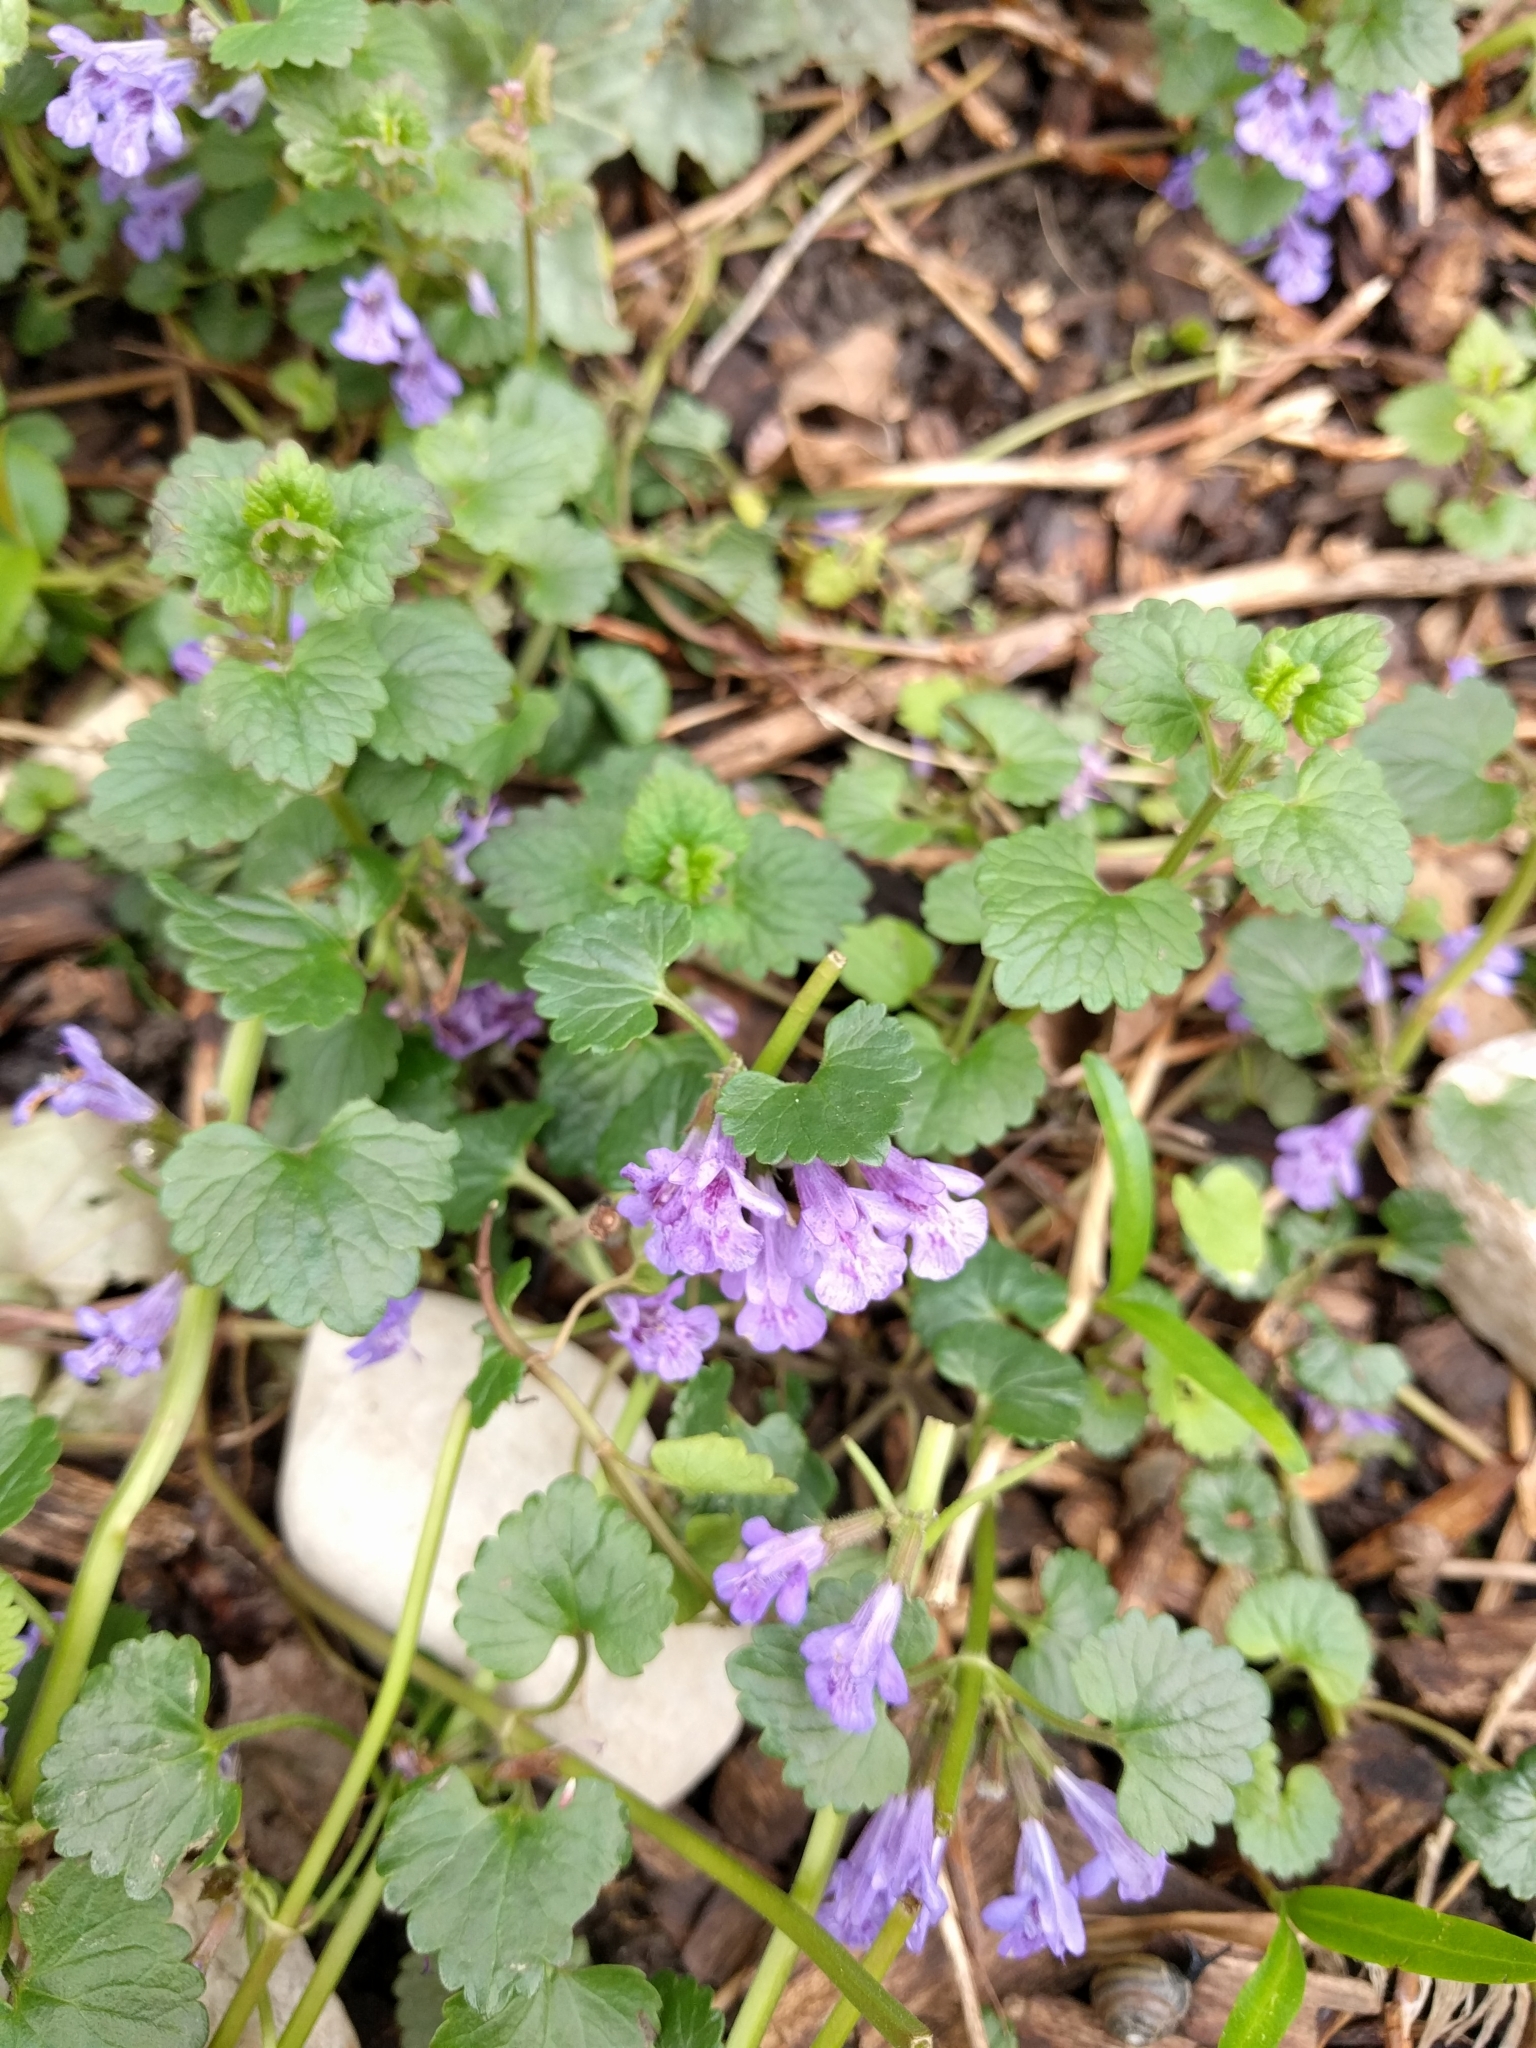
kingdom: Plantae
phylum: Tracheophyta
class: Magnoliopsida
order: Lamiales
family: Lamiaceae
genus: Glechoma
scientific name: Glechoma hederacea
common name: Ground ivy
